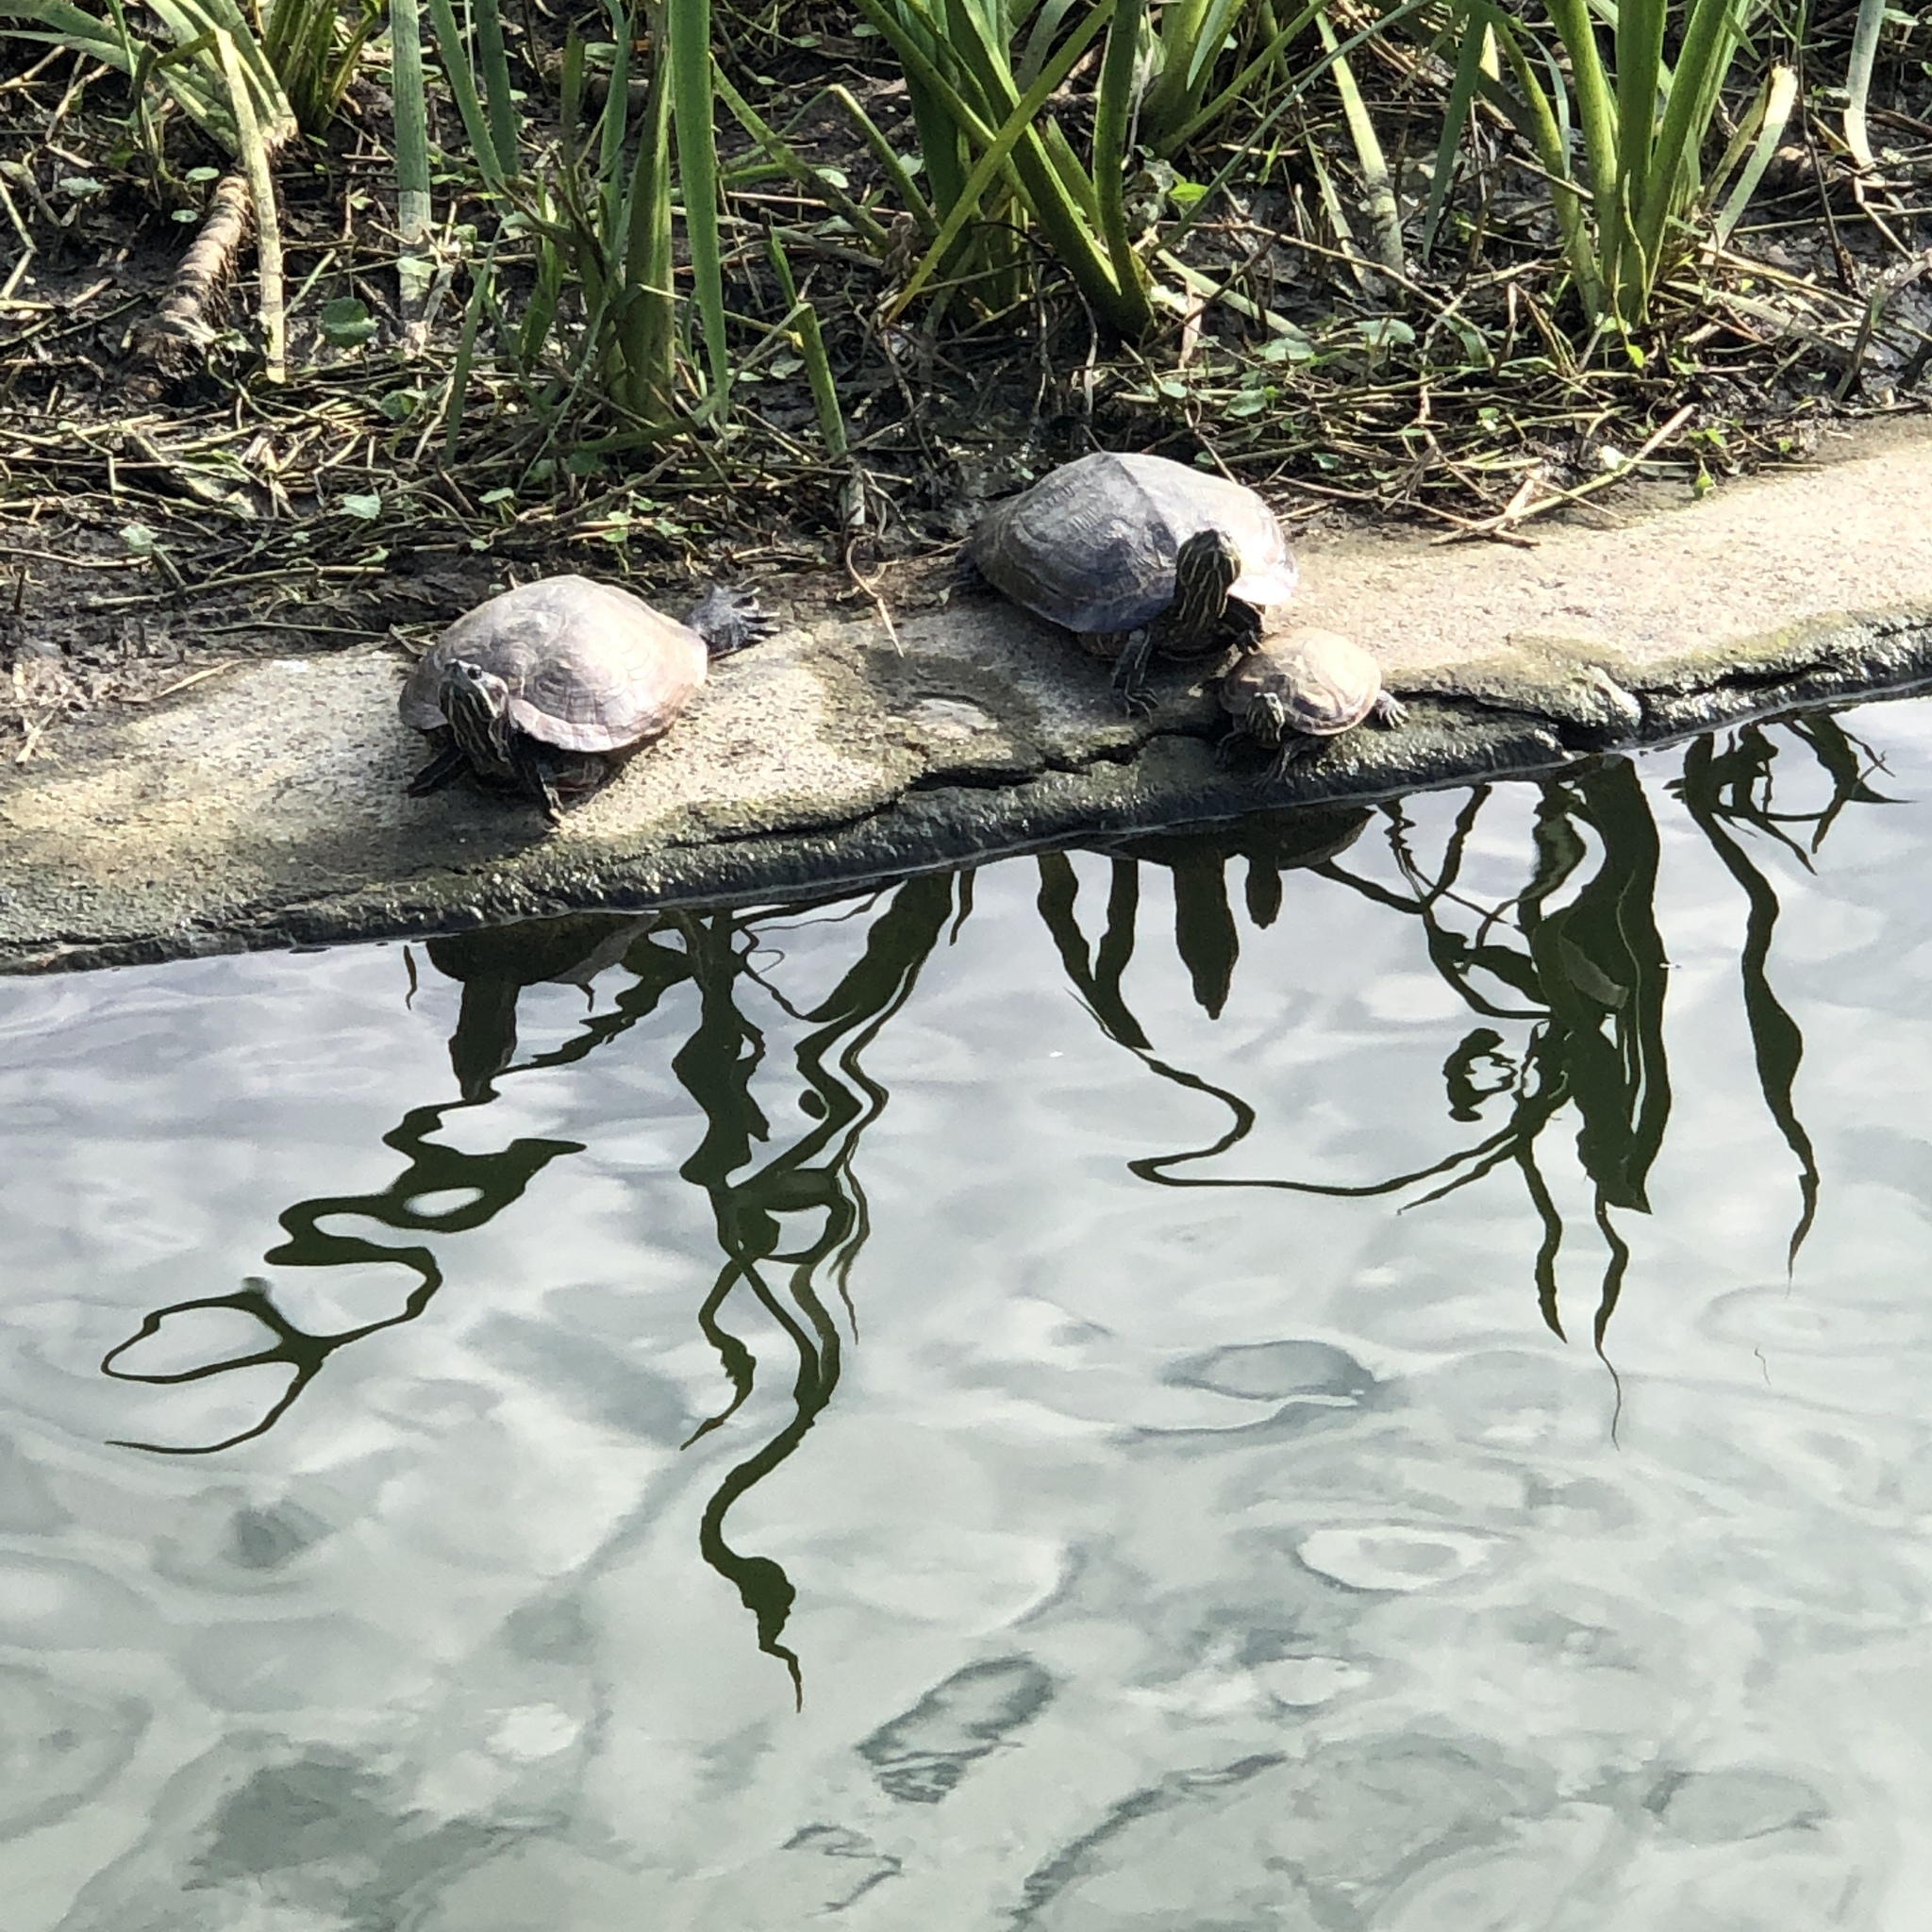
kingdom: Animalia
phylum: Chordata
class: Testudines
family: Emydidae
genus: Trachemys
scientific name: Trachemys scripta
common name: Slider
